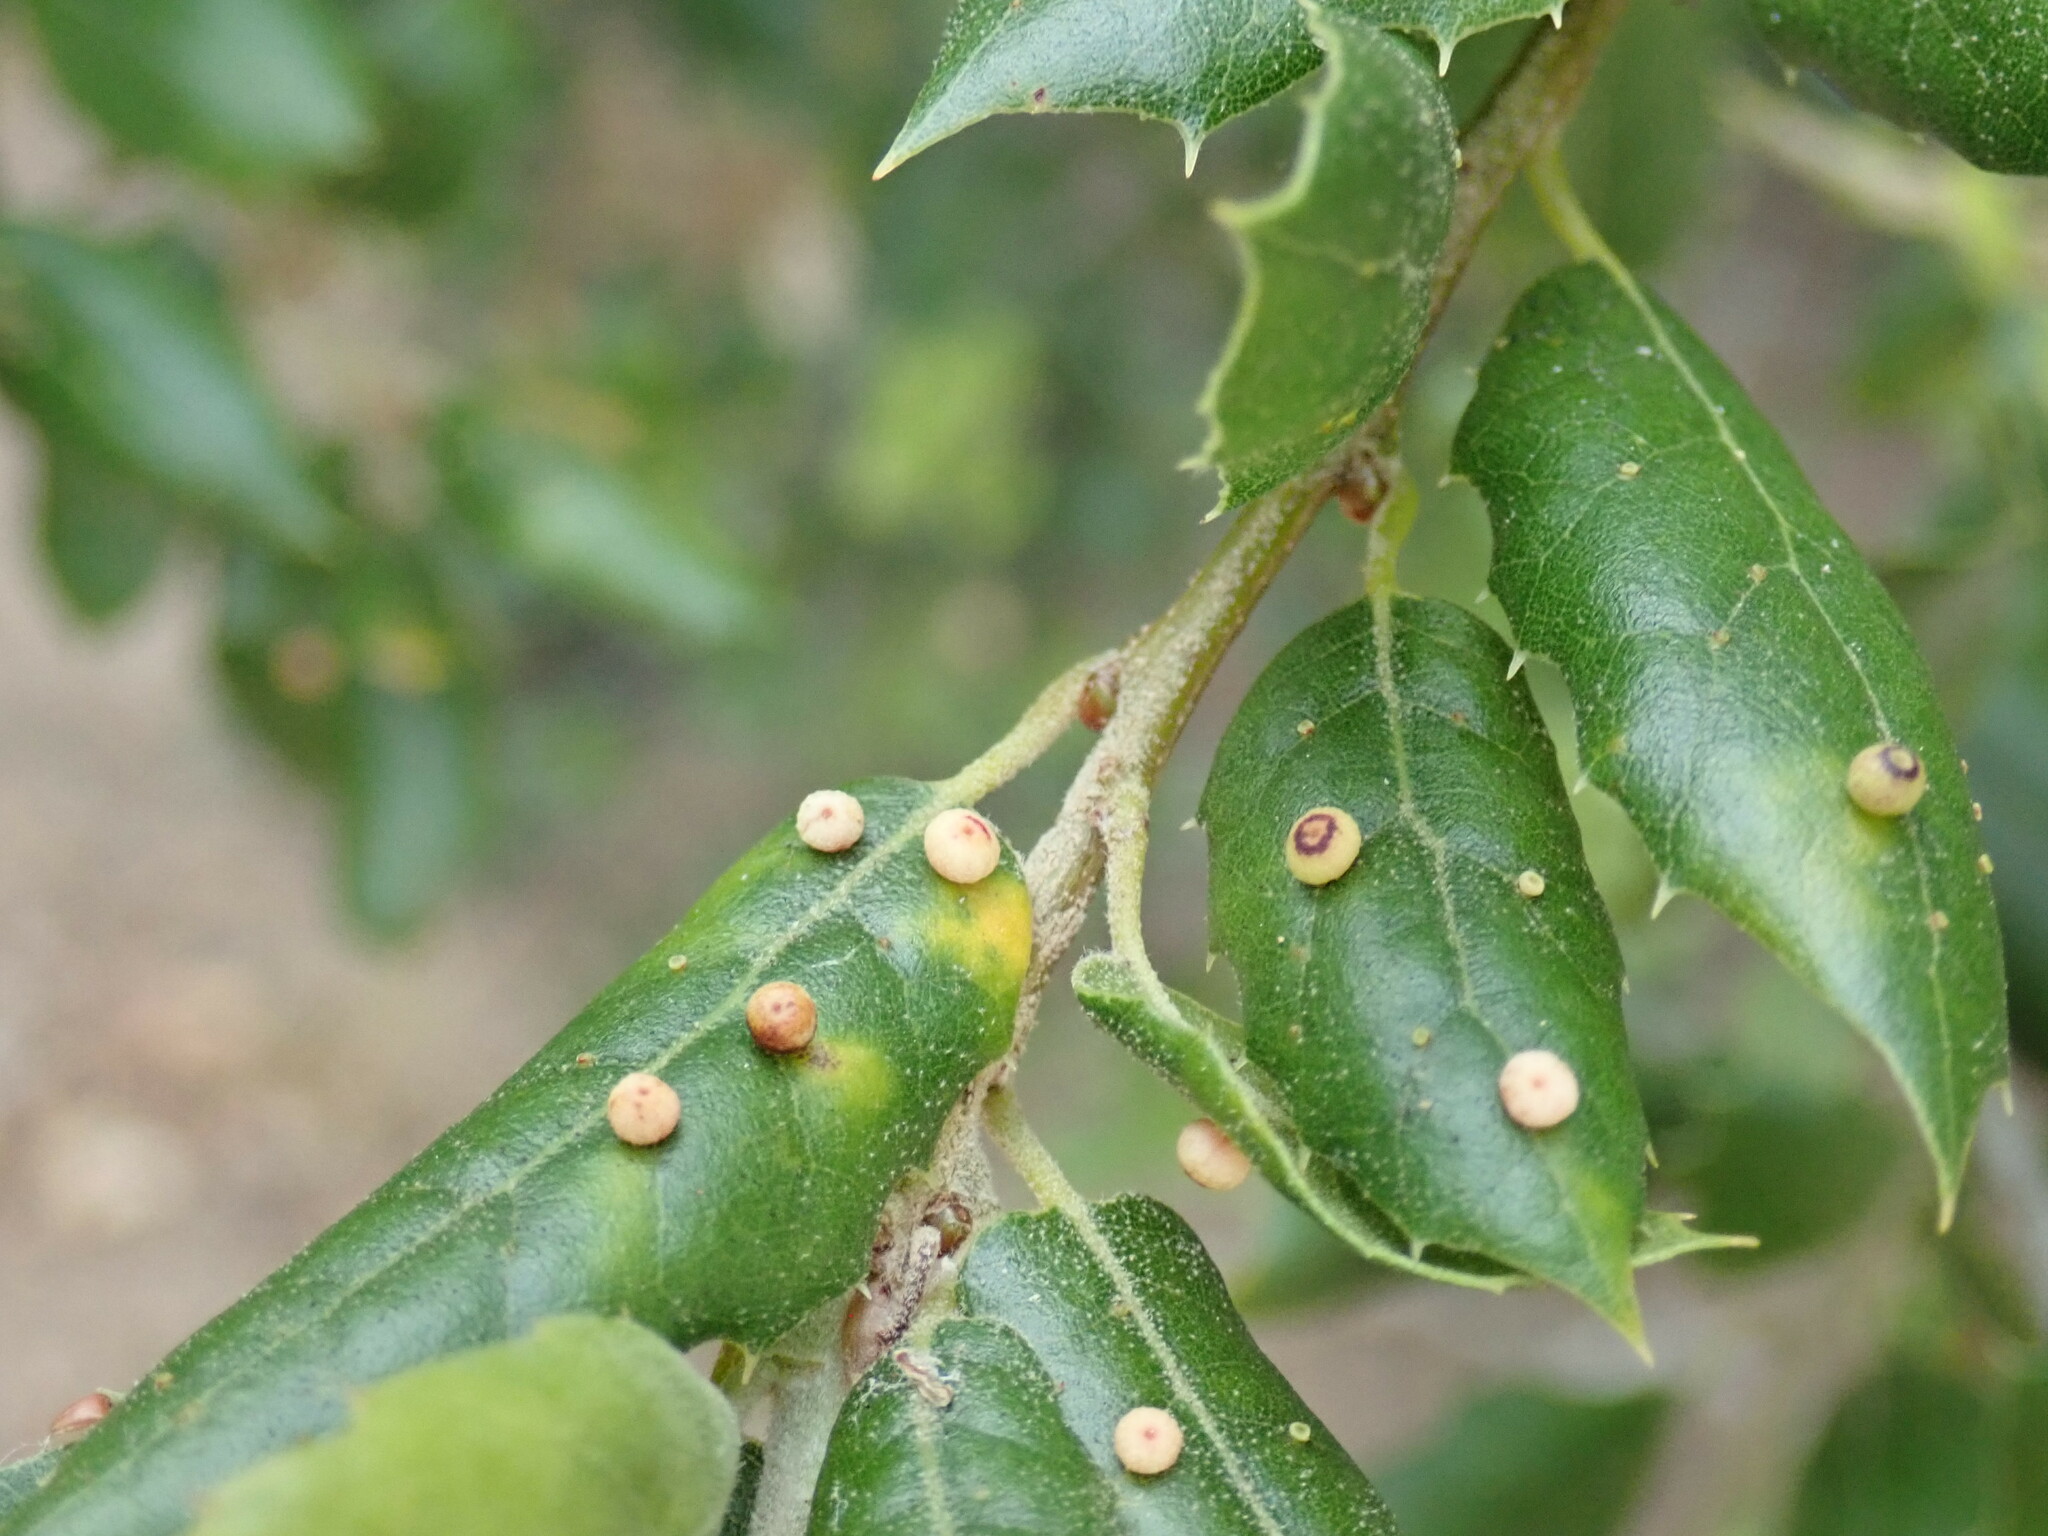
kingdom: Animalia
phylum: Arthropoda
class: Insecta
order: Hymenoptera
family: Cynipidae
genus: Dryocosmus
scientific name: Dryocosmus
